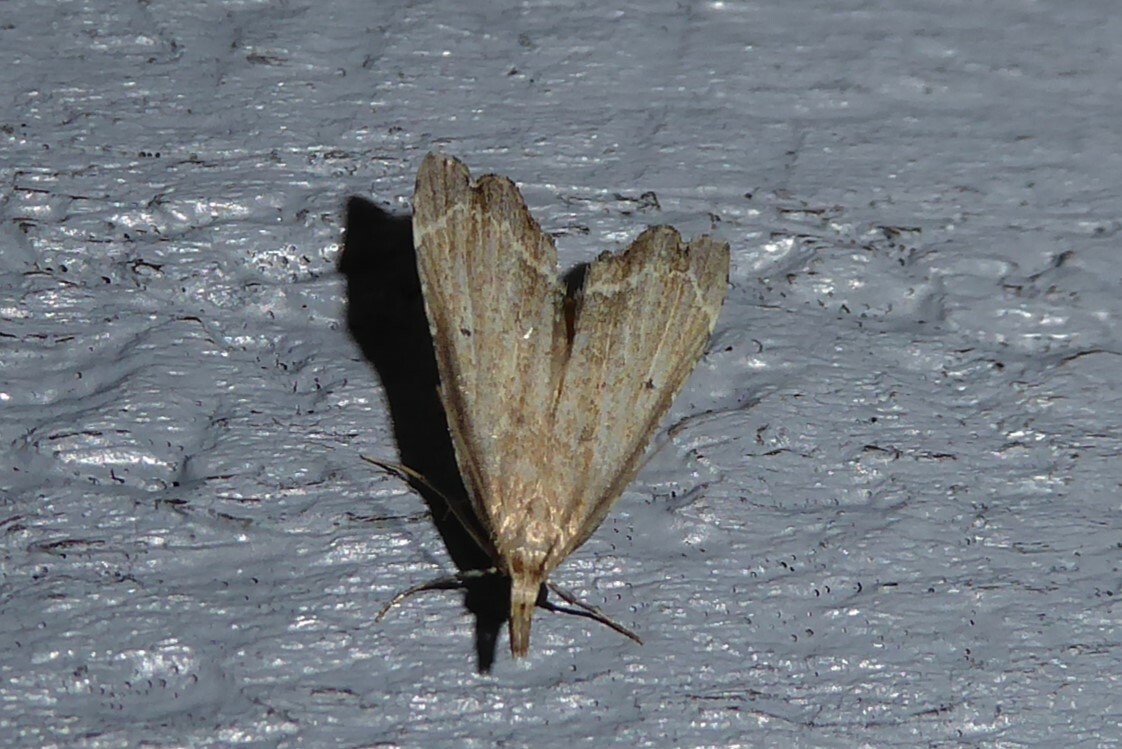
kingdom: Animalia
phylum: Arthropoda
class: Insecta
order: Lepidoptera
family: Crambidae
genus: Diplopseustis
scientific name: Diplopseustis perieresalis
